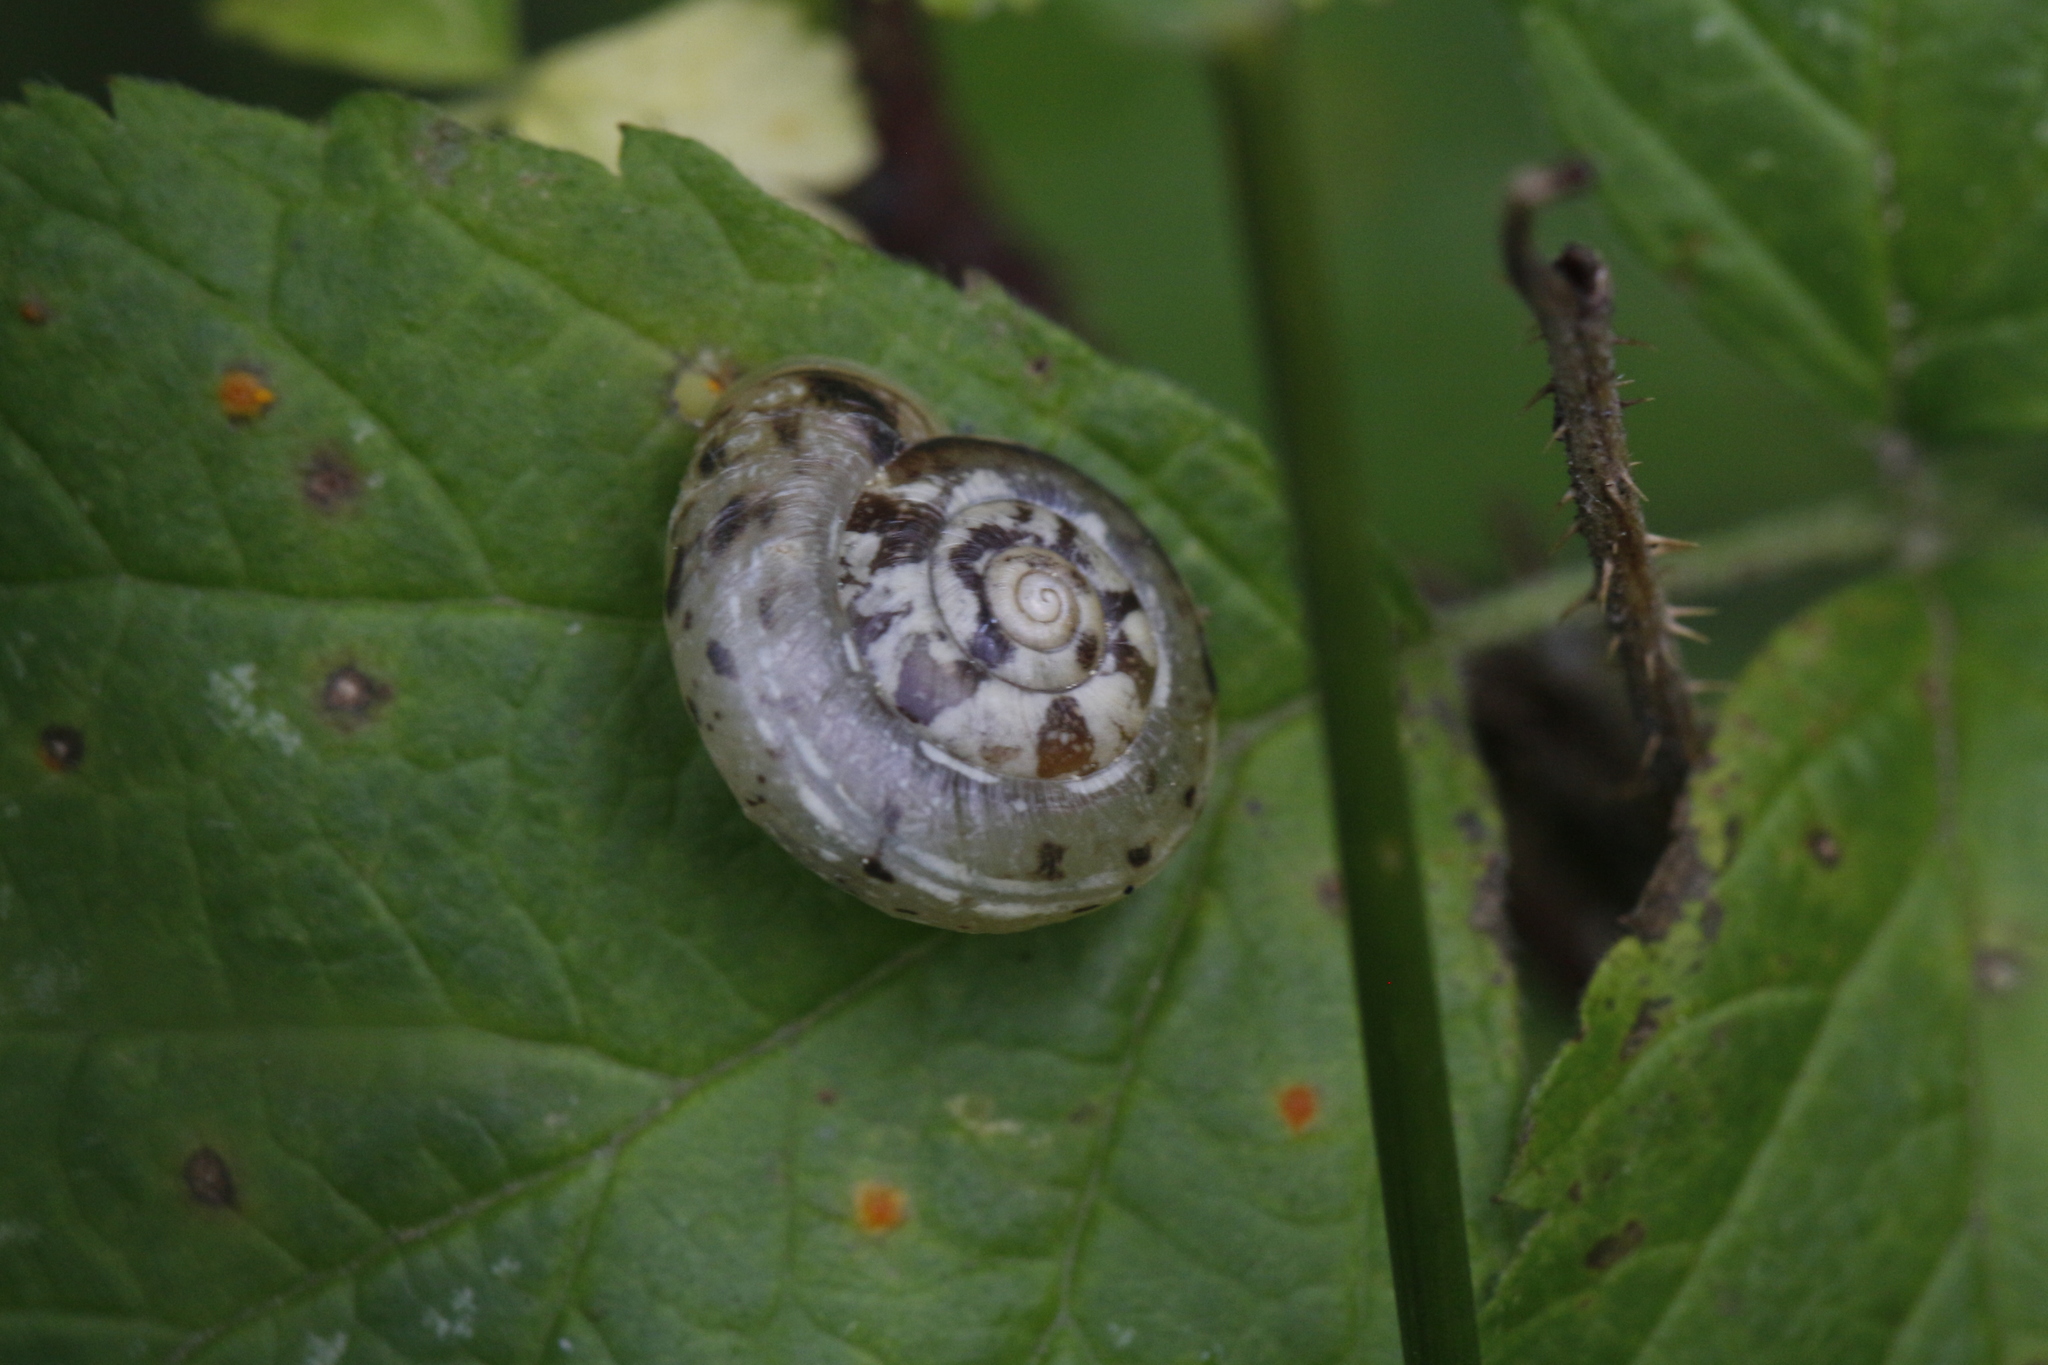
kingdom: Animalia
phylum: Mollusca
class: Gastropoda
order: Stylommatophora
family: Hygromiidae
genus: Urticicola
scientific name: Urticicola umbrosus
